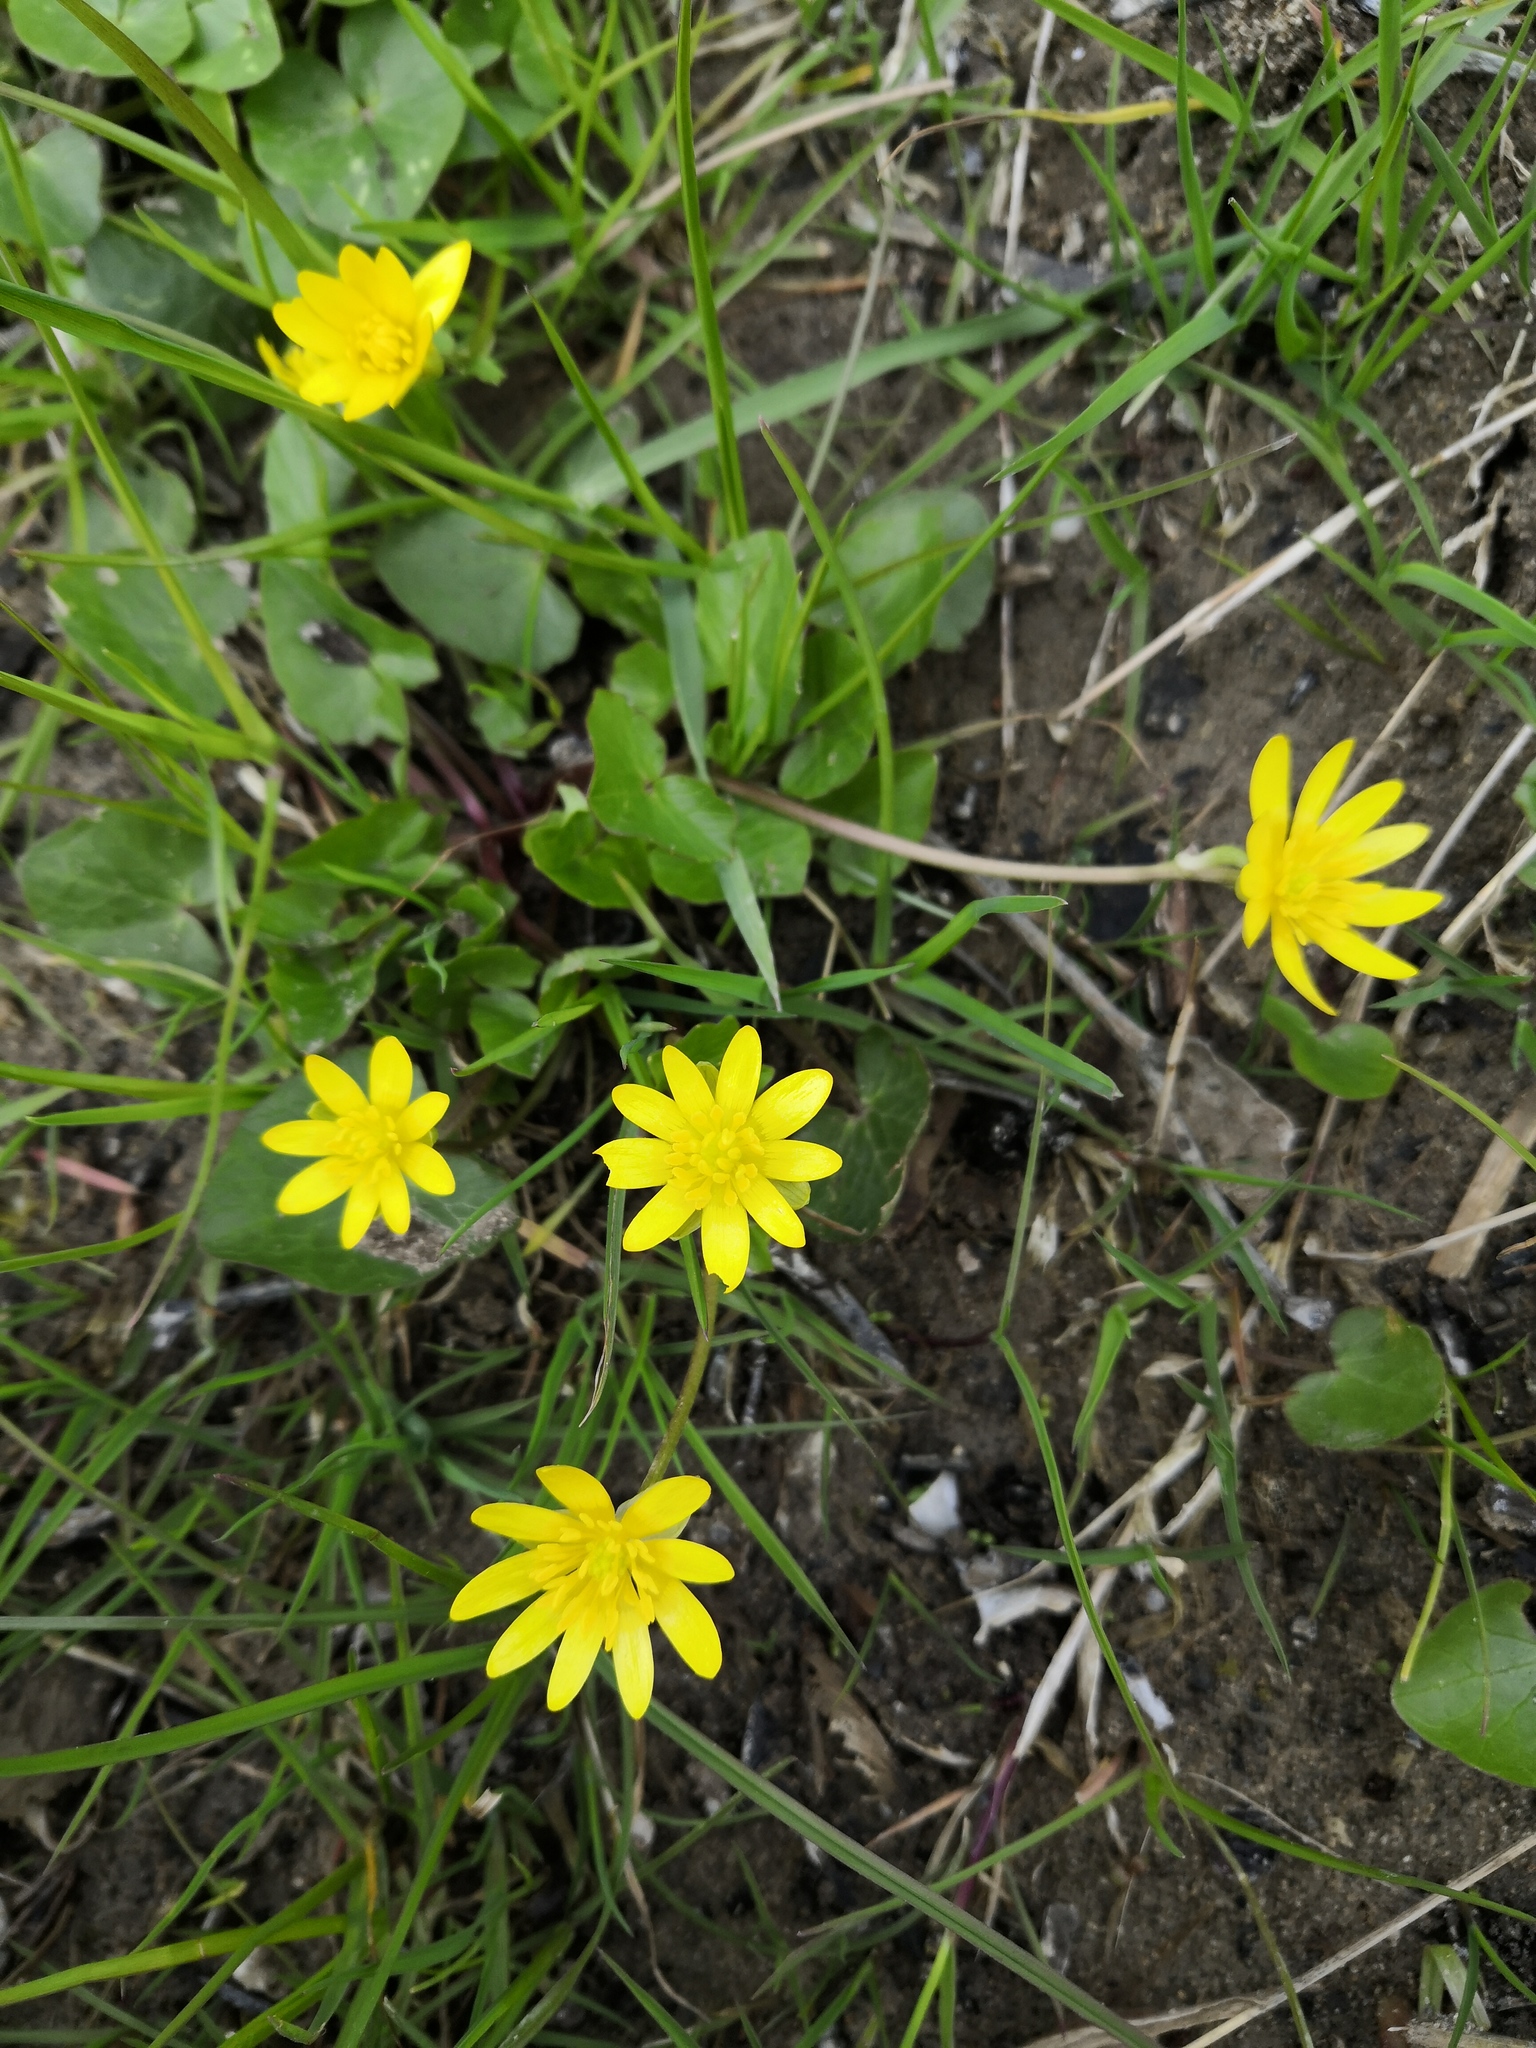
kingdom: Plantae
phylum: Tracheophyta
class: Magnoliopsida
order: Ranunculales
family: Ranunculaceae
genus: Ficaria
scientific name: Ficaria verna
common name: Lesser celandine
